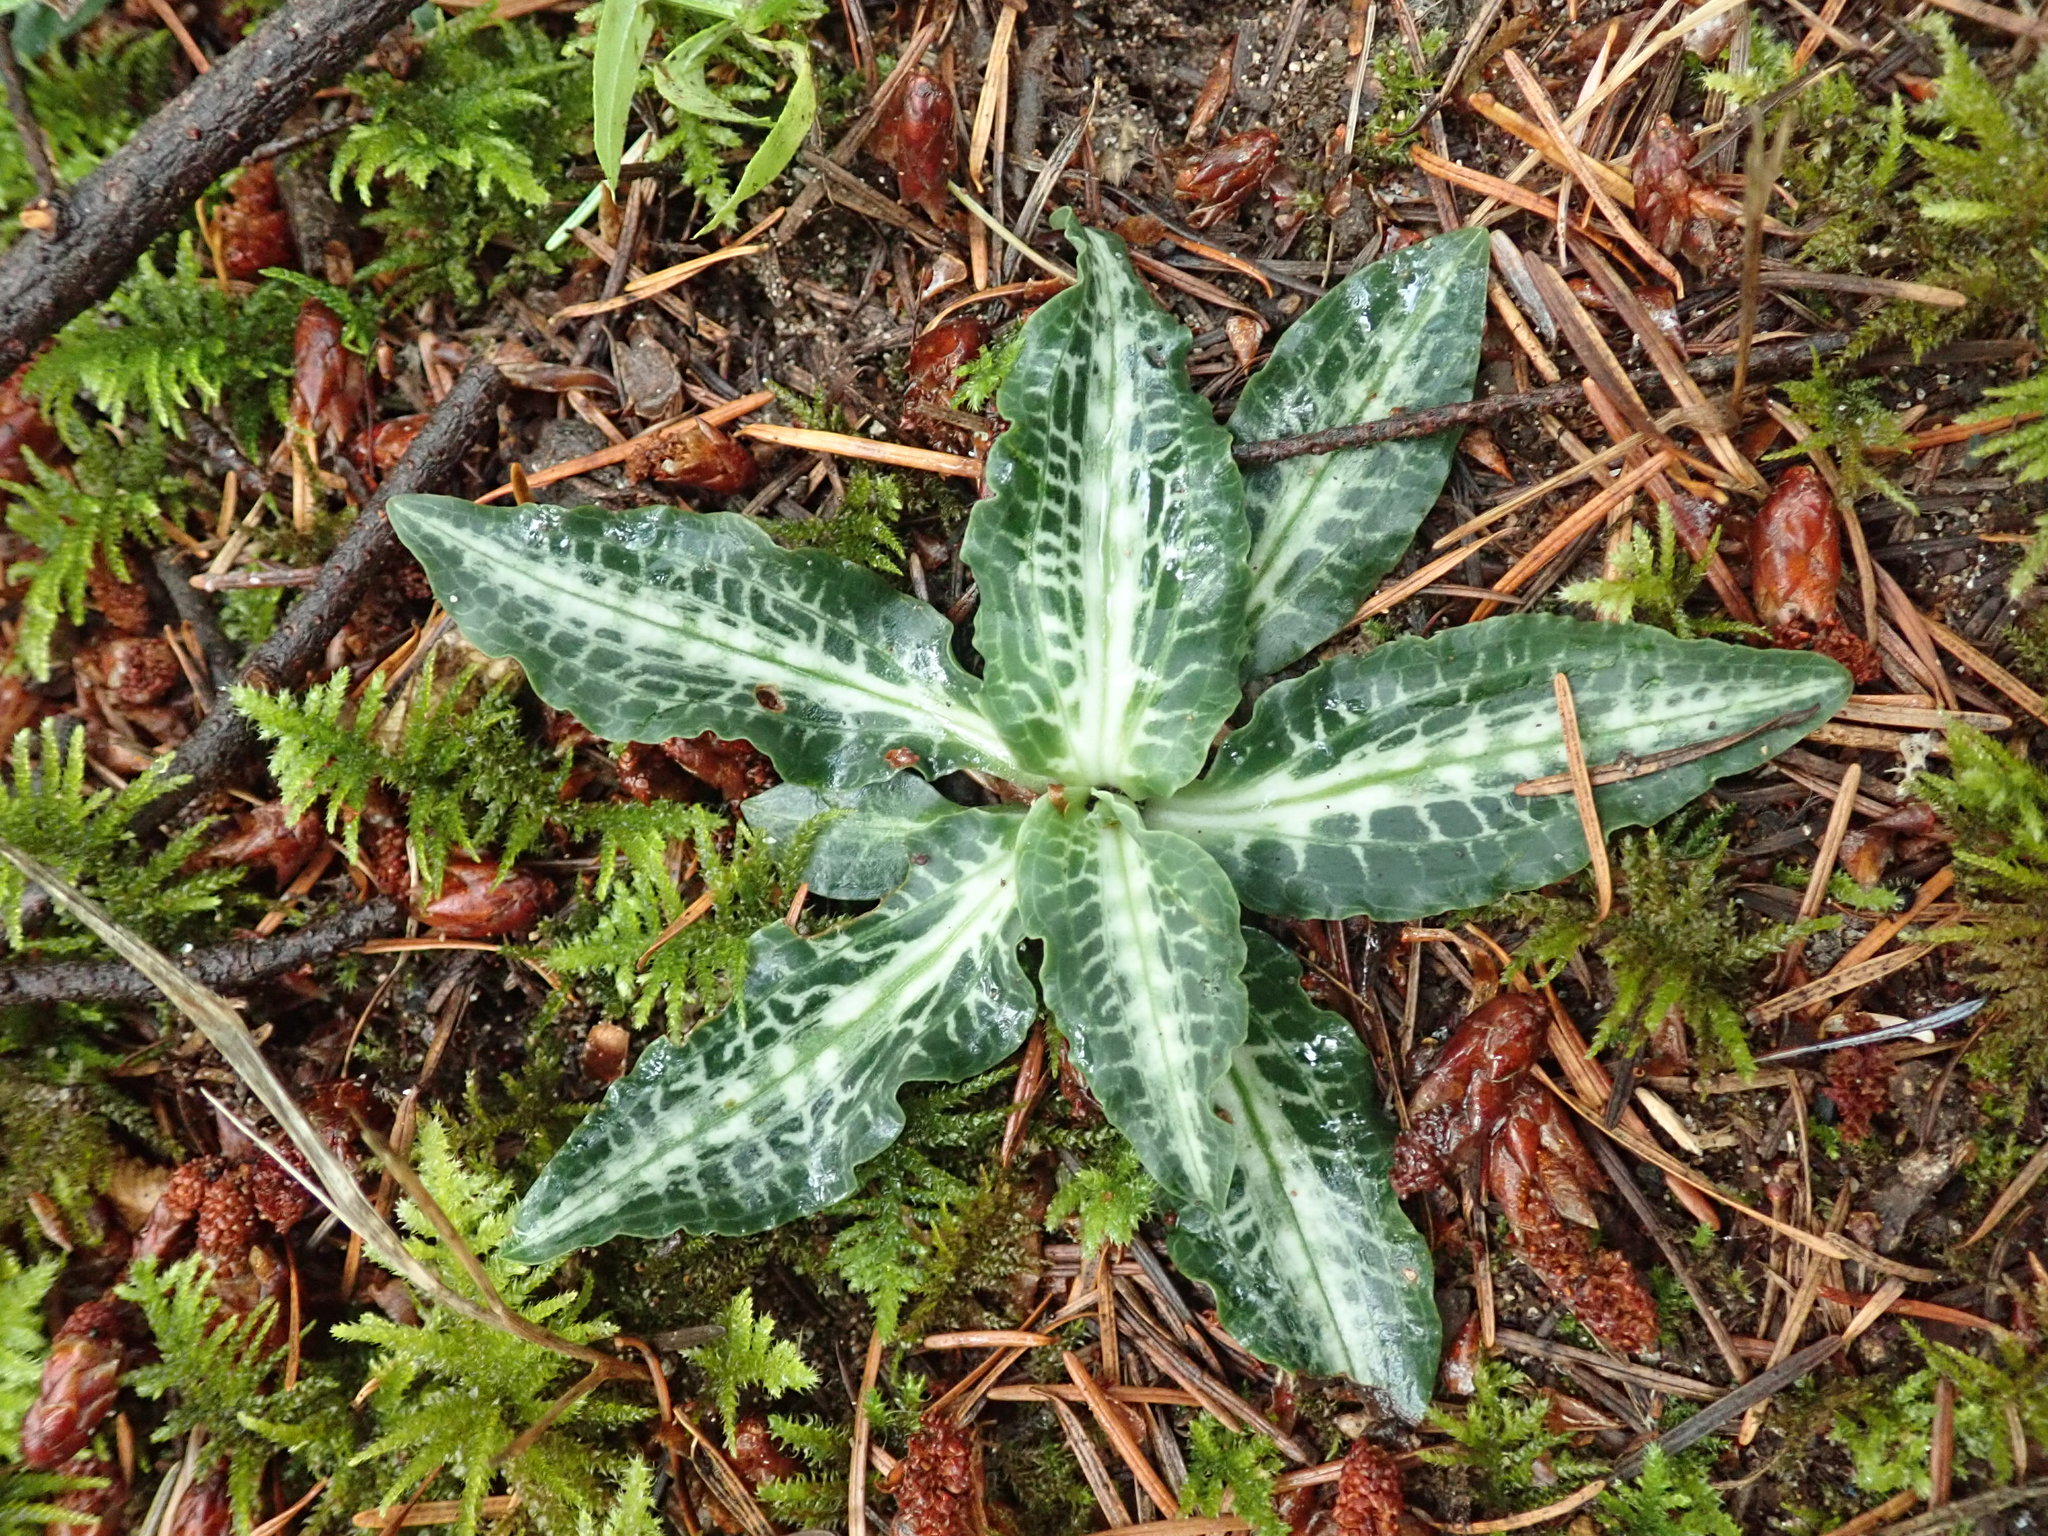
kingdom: Plantae
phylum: Tracheophyta
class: Liliopsida
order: Asparagales
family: Orchidaceae
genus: Goodyera
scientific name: Goodyera oblongifolia
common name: Giant rattlesnake-plantain
